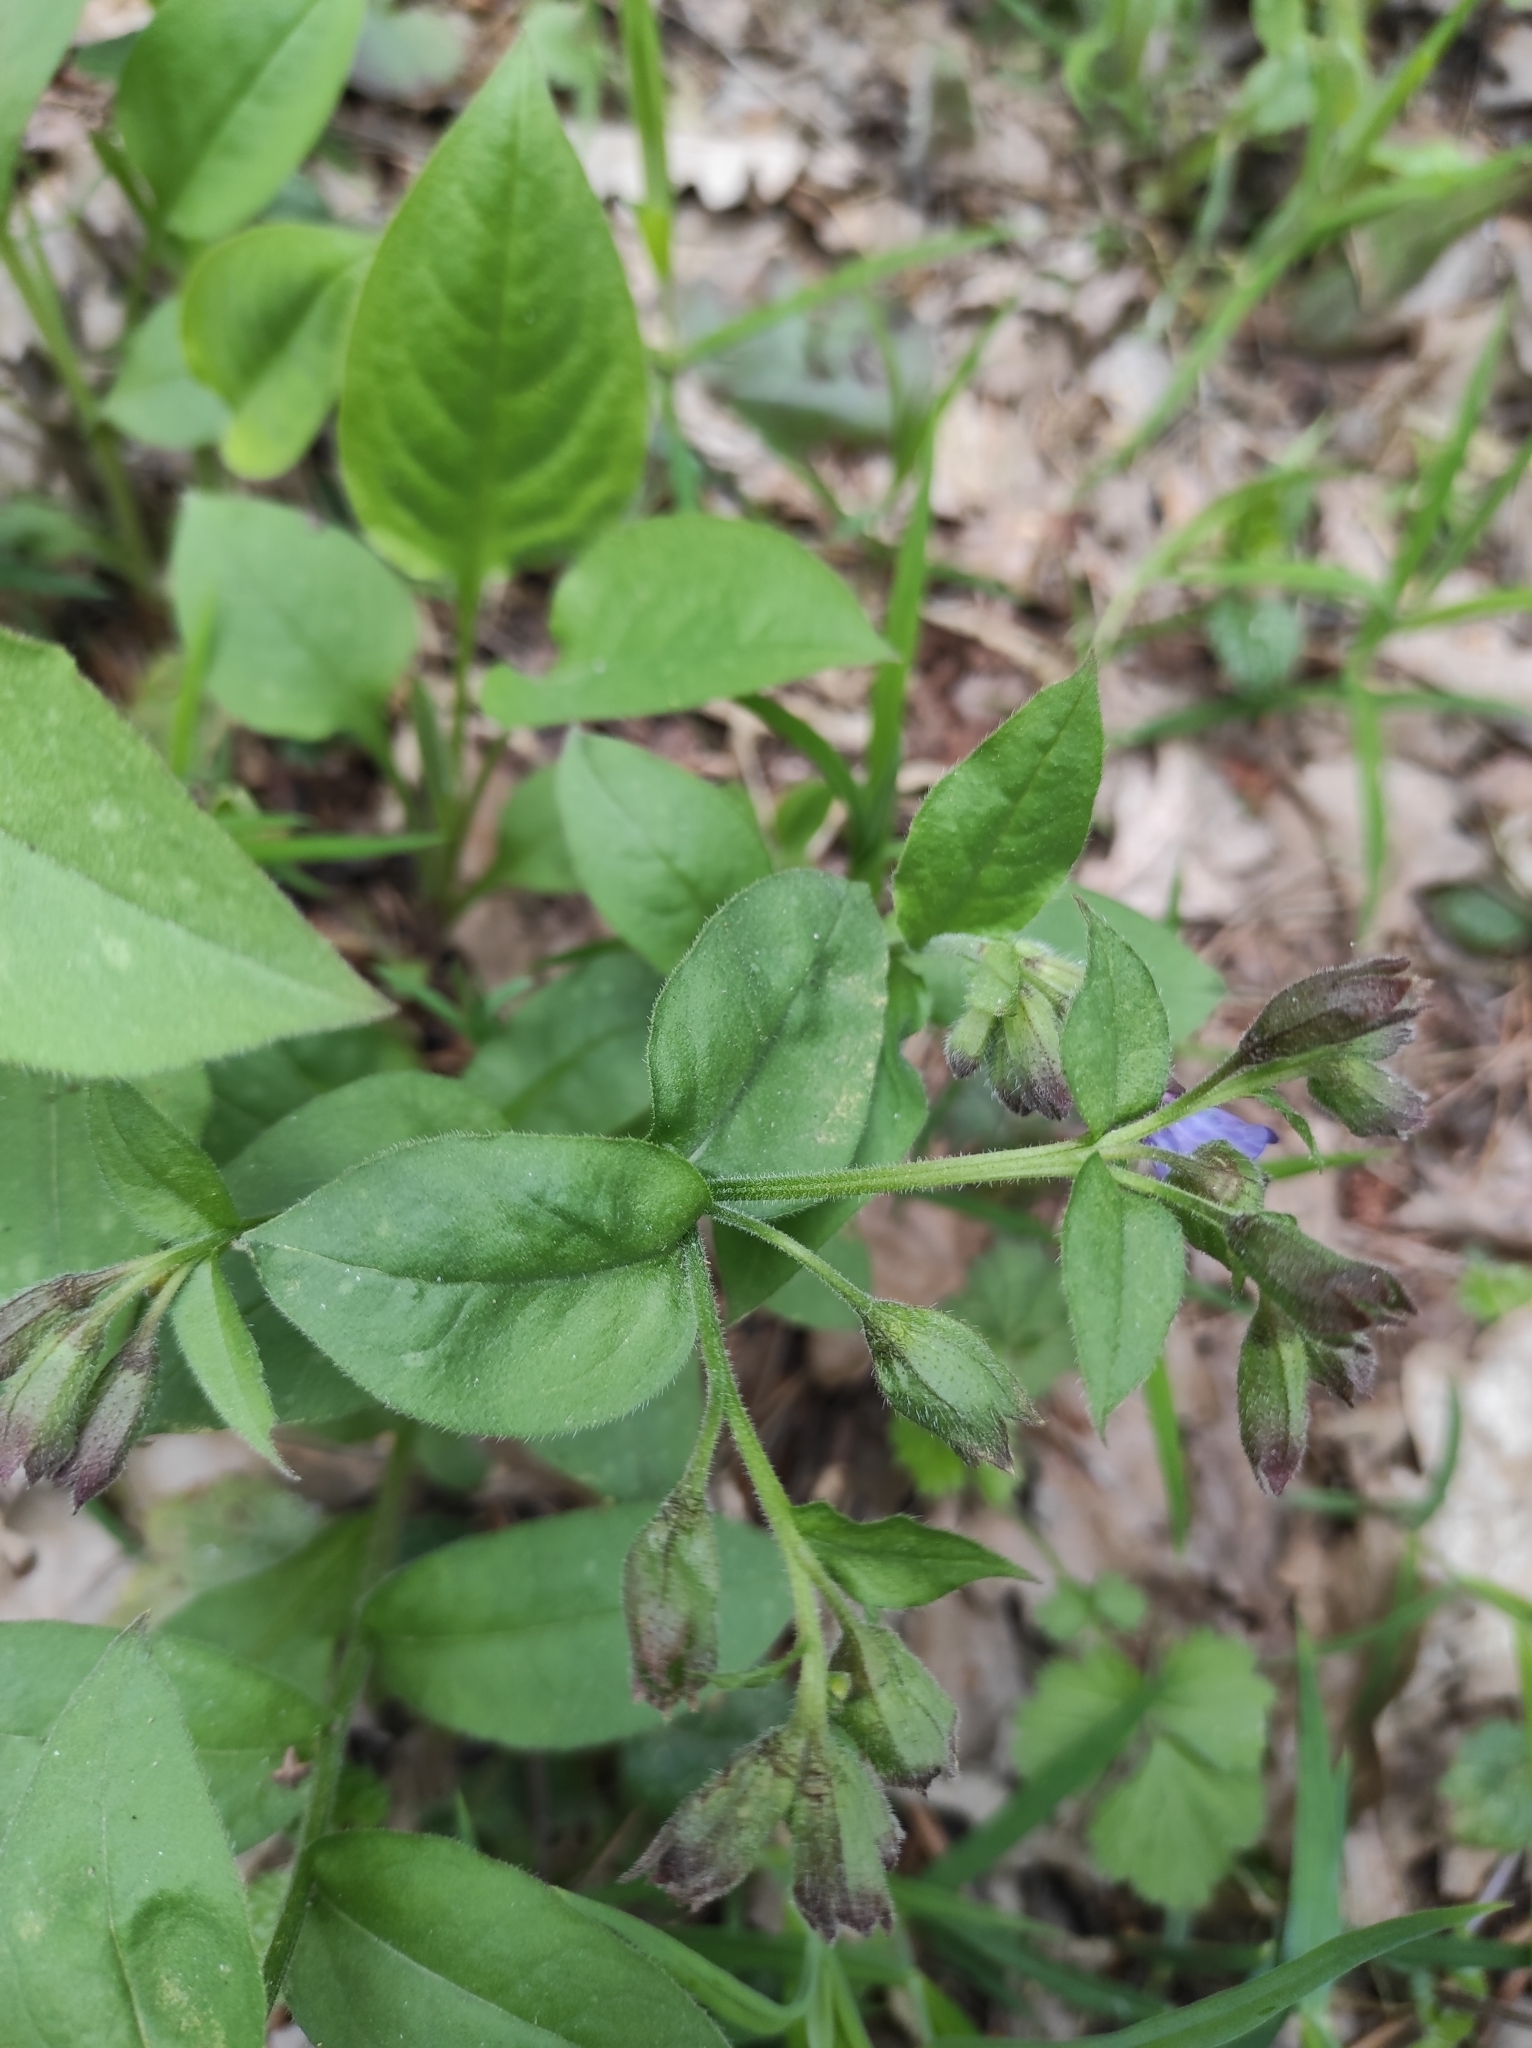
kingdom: Plantae
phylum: Tracheophyta
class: Magnoliopsida
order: Boraginales
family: Boraginaceae
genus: Pulmonaria
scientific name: Pulmonaria obscura
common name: Suffolk lungwort
